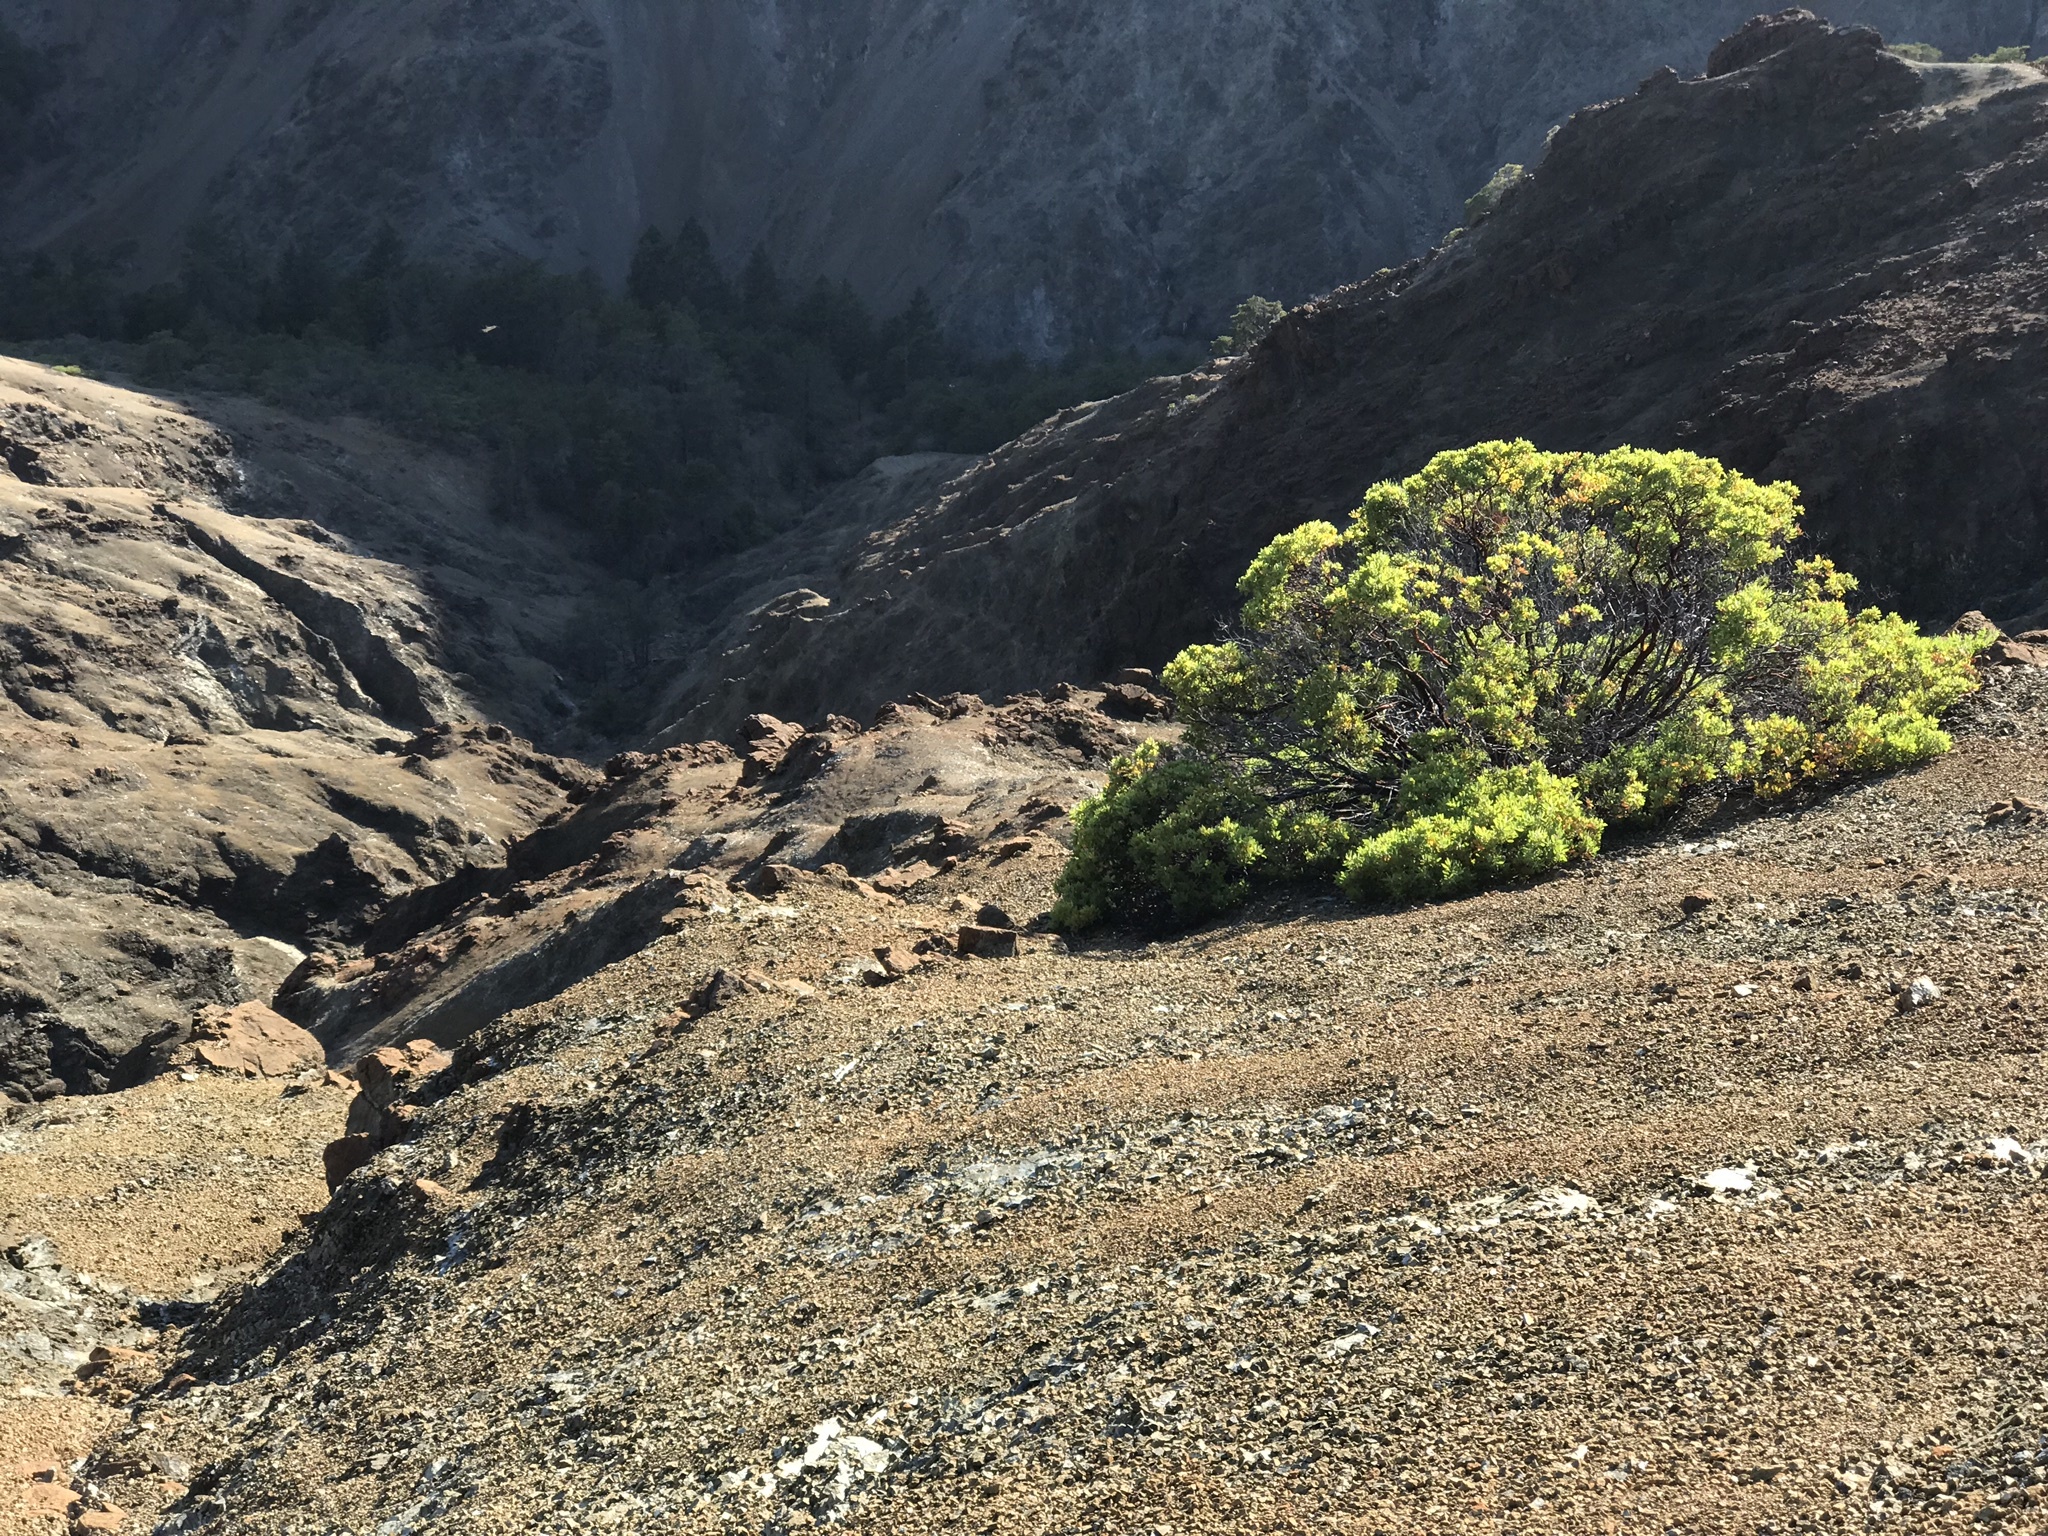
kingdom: Plantae
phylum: Tracheophyta
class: Magnoliopsida
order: Ericales
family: Ericaceae
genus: Arctostaphylos
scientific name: Arctostaphylos bakeri
